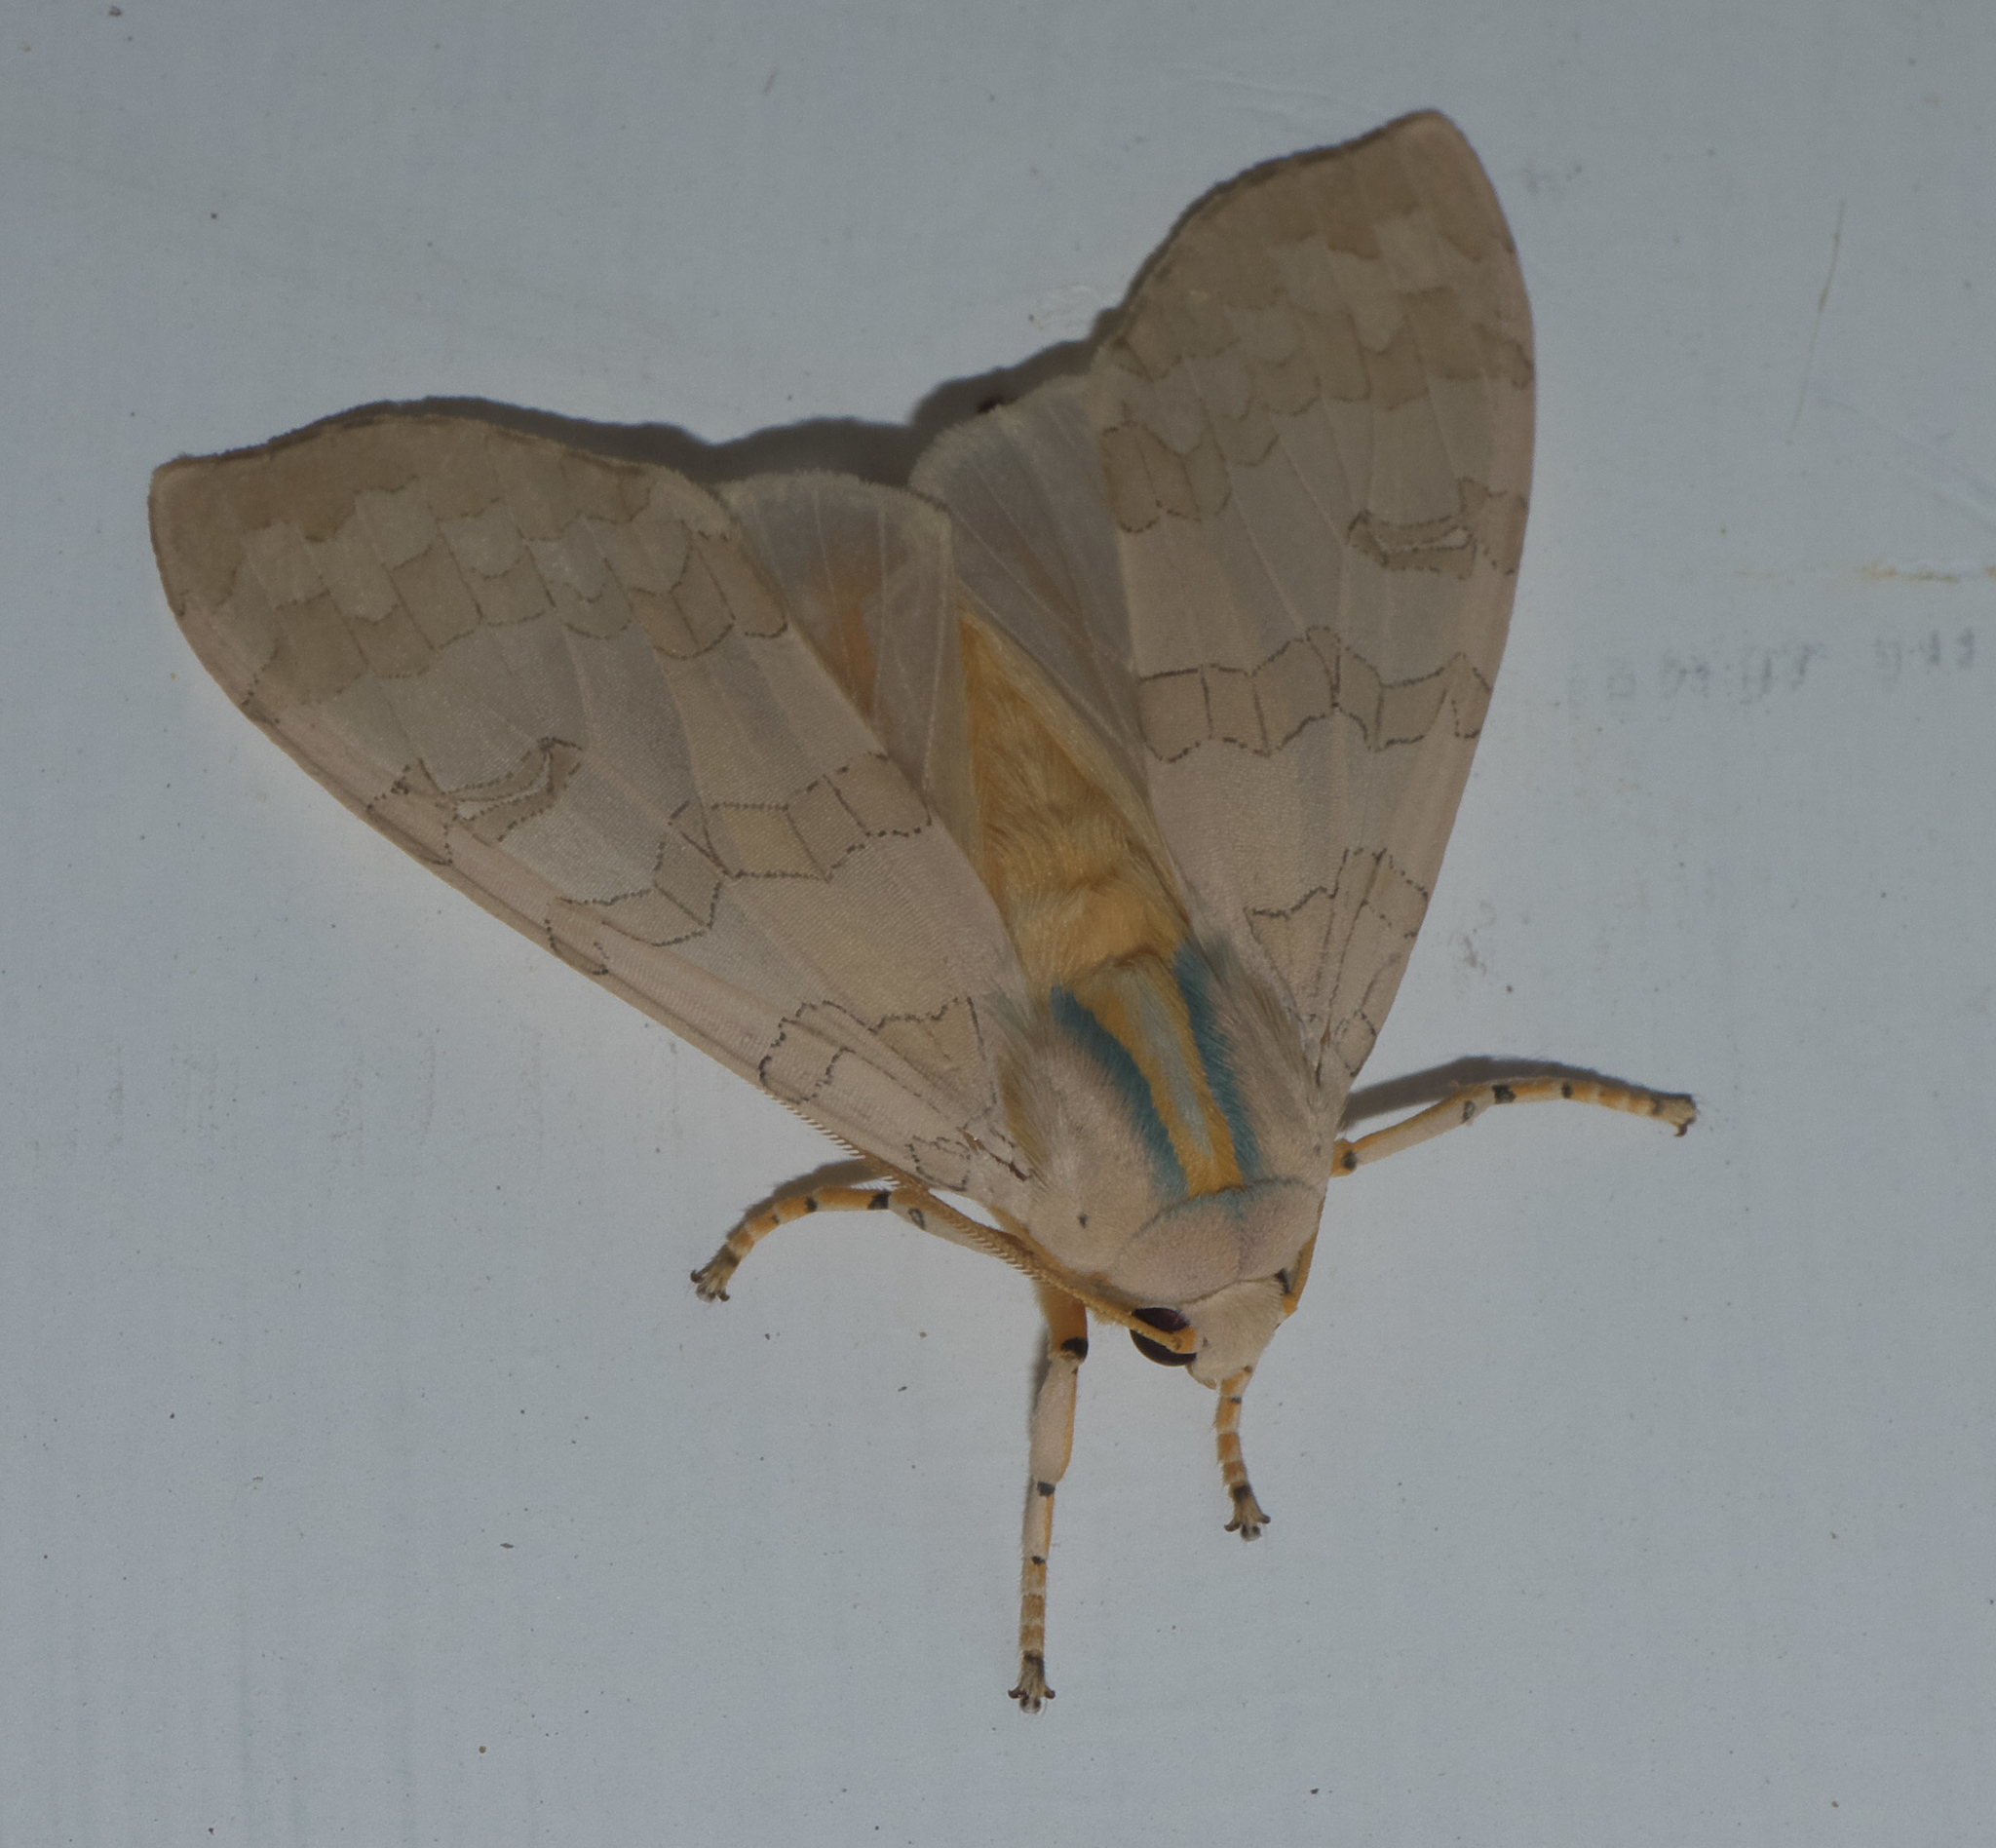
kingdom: Animalia
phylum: Arthropoda
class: Insecta
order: Lepidoptera
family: Erebidae
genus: Halysidota
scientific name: Halysidota
